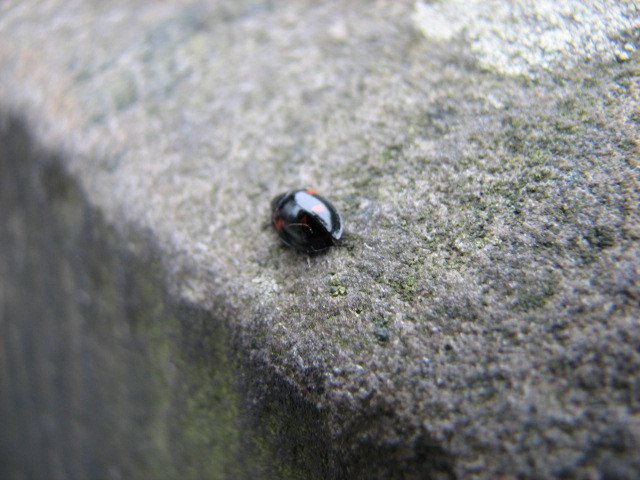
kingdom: Animalia
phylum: Arthropoda
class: Insecta
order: Coleoptera
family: Coccinellidae
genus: Brumus
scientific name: Brumus quadripustulatus
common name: Ladybird beetle
